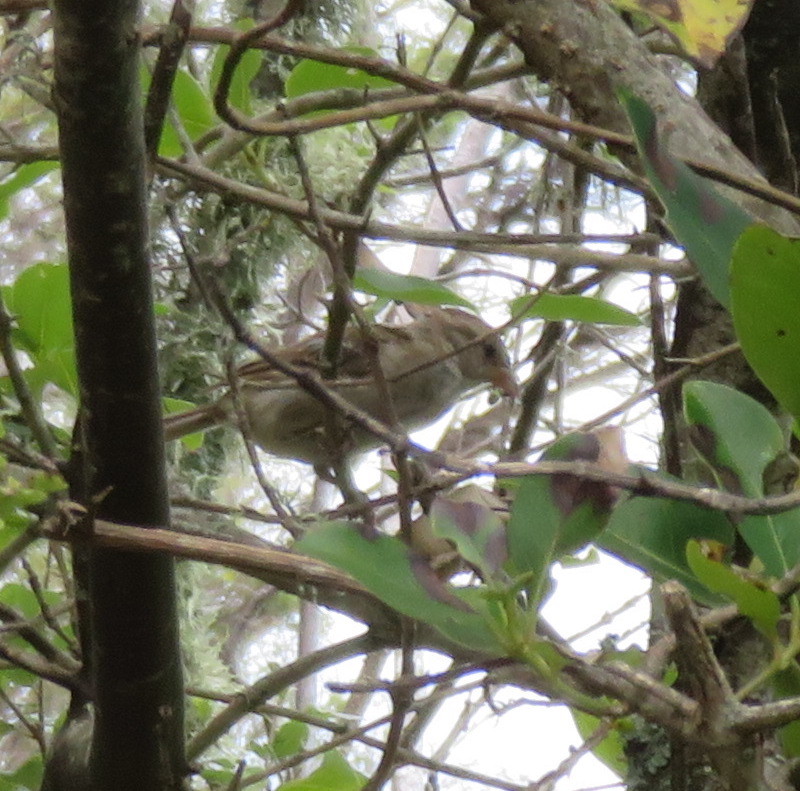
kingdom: Animalia
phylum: Chordata
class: Aves
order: Passeriformes
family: Passeridae
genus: Passer
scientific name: Passer domesticus
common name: House sparrow
